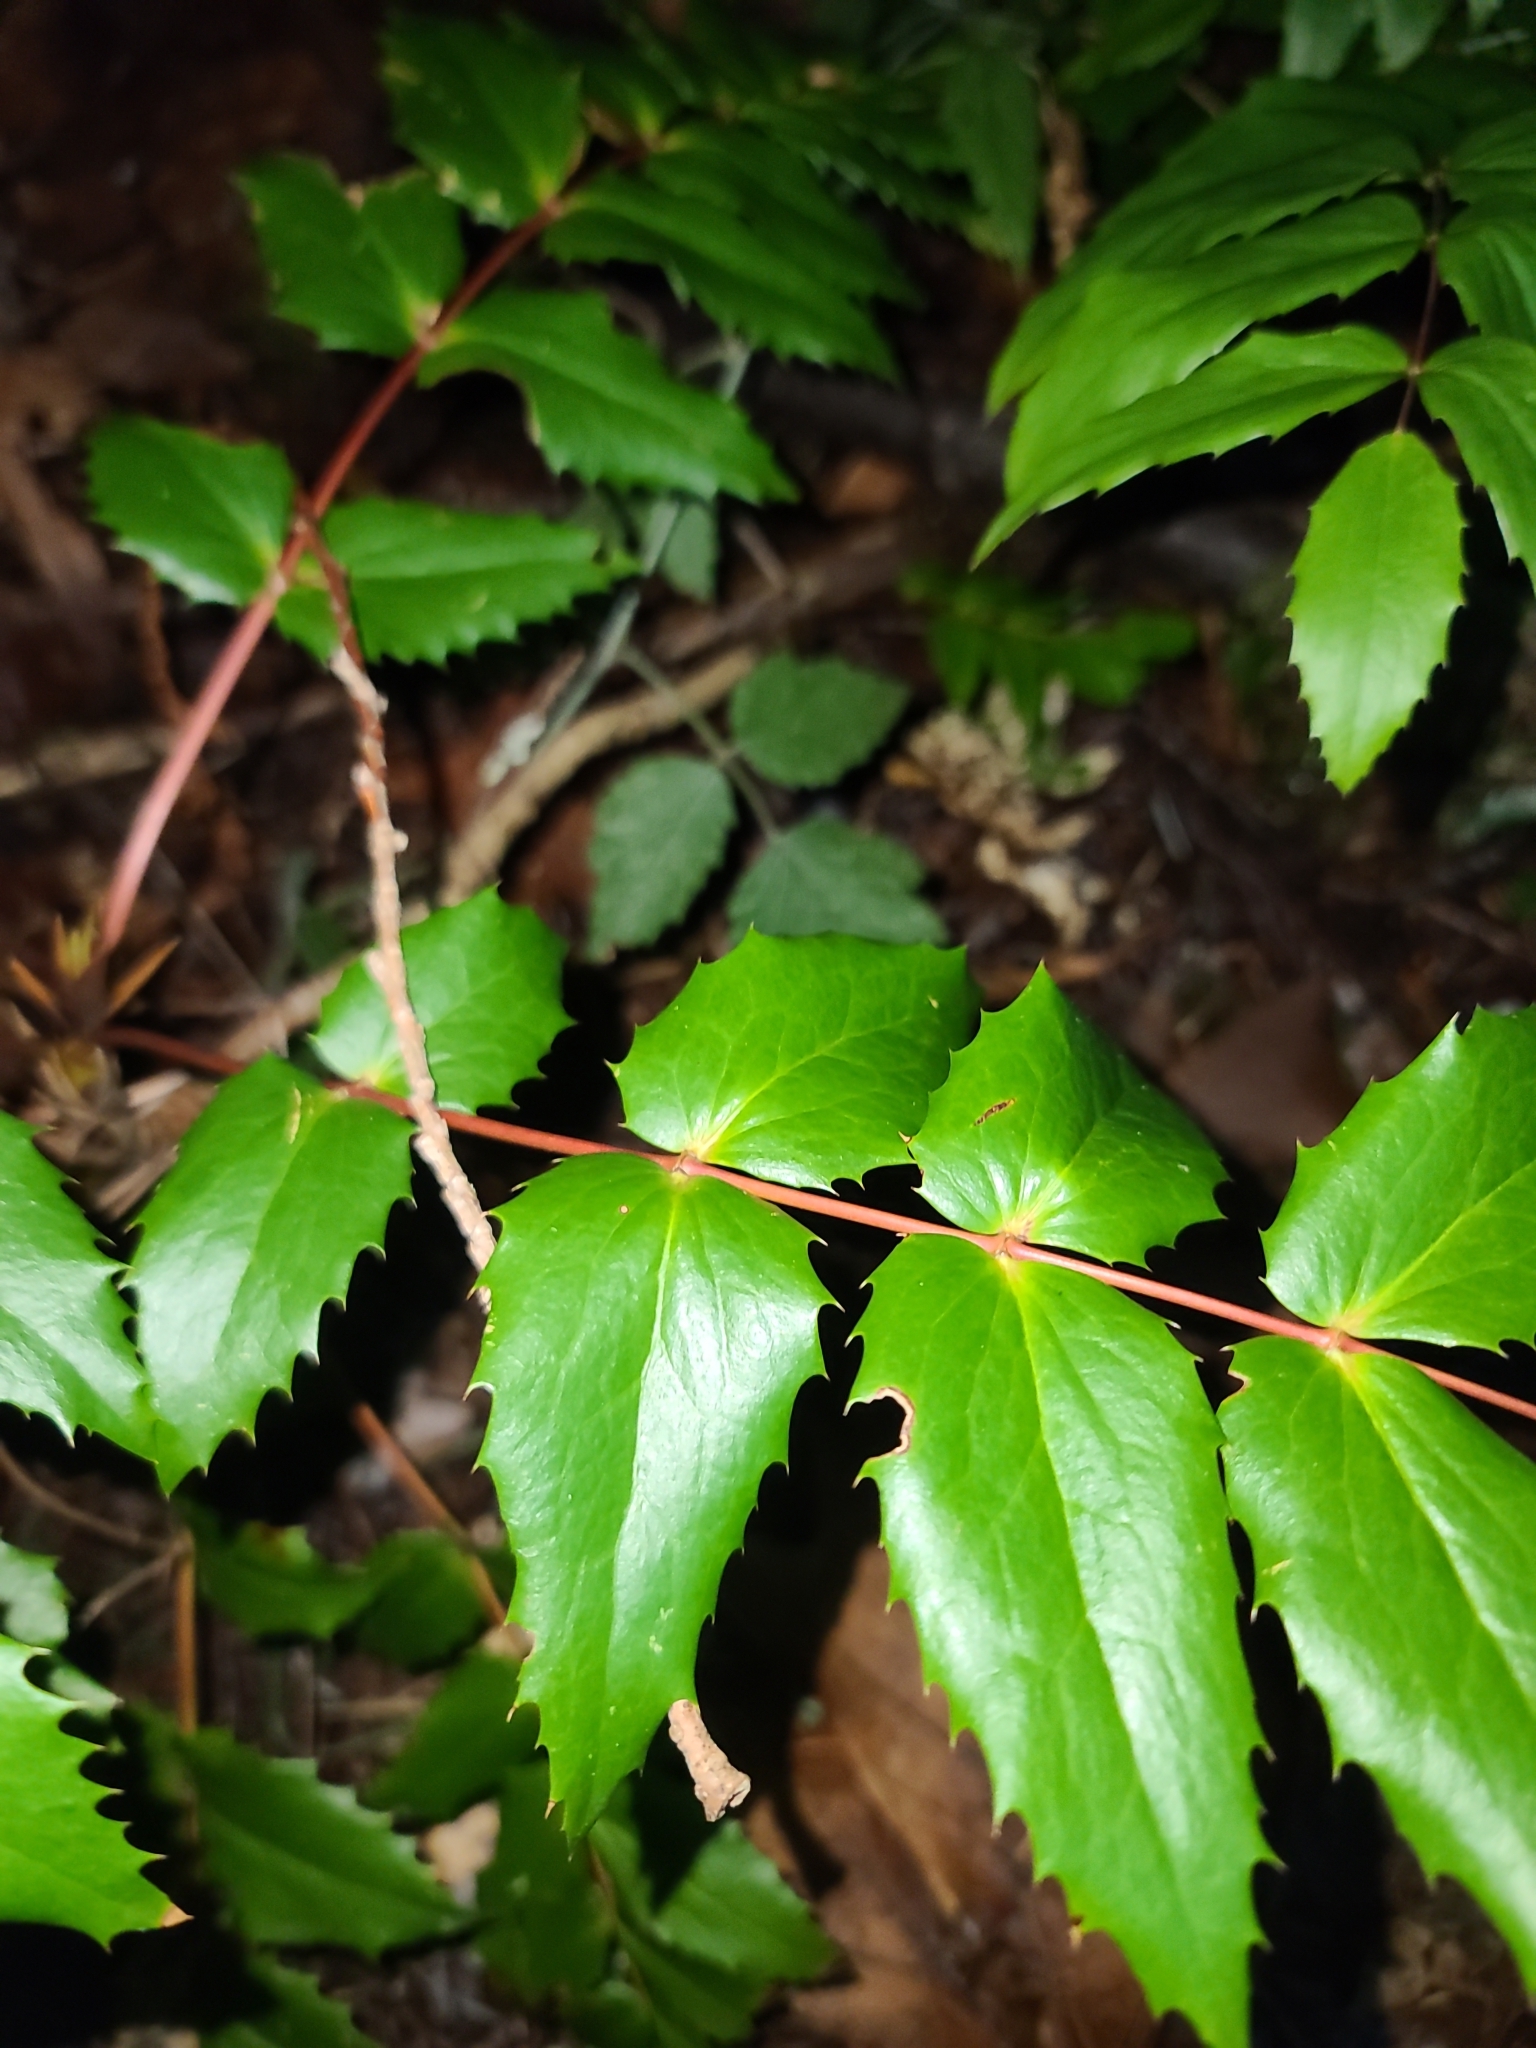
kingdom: Plantae
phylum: Tracheophyta
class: Magnoliopsida
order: Ranunculales
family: Berberidaceae
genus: Mahonia
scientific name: Mahonia nervosa
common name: Cascade oregon-grape
